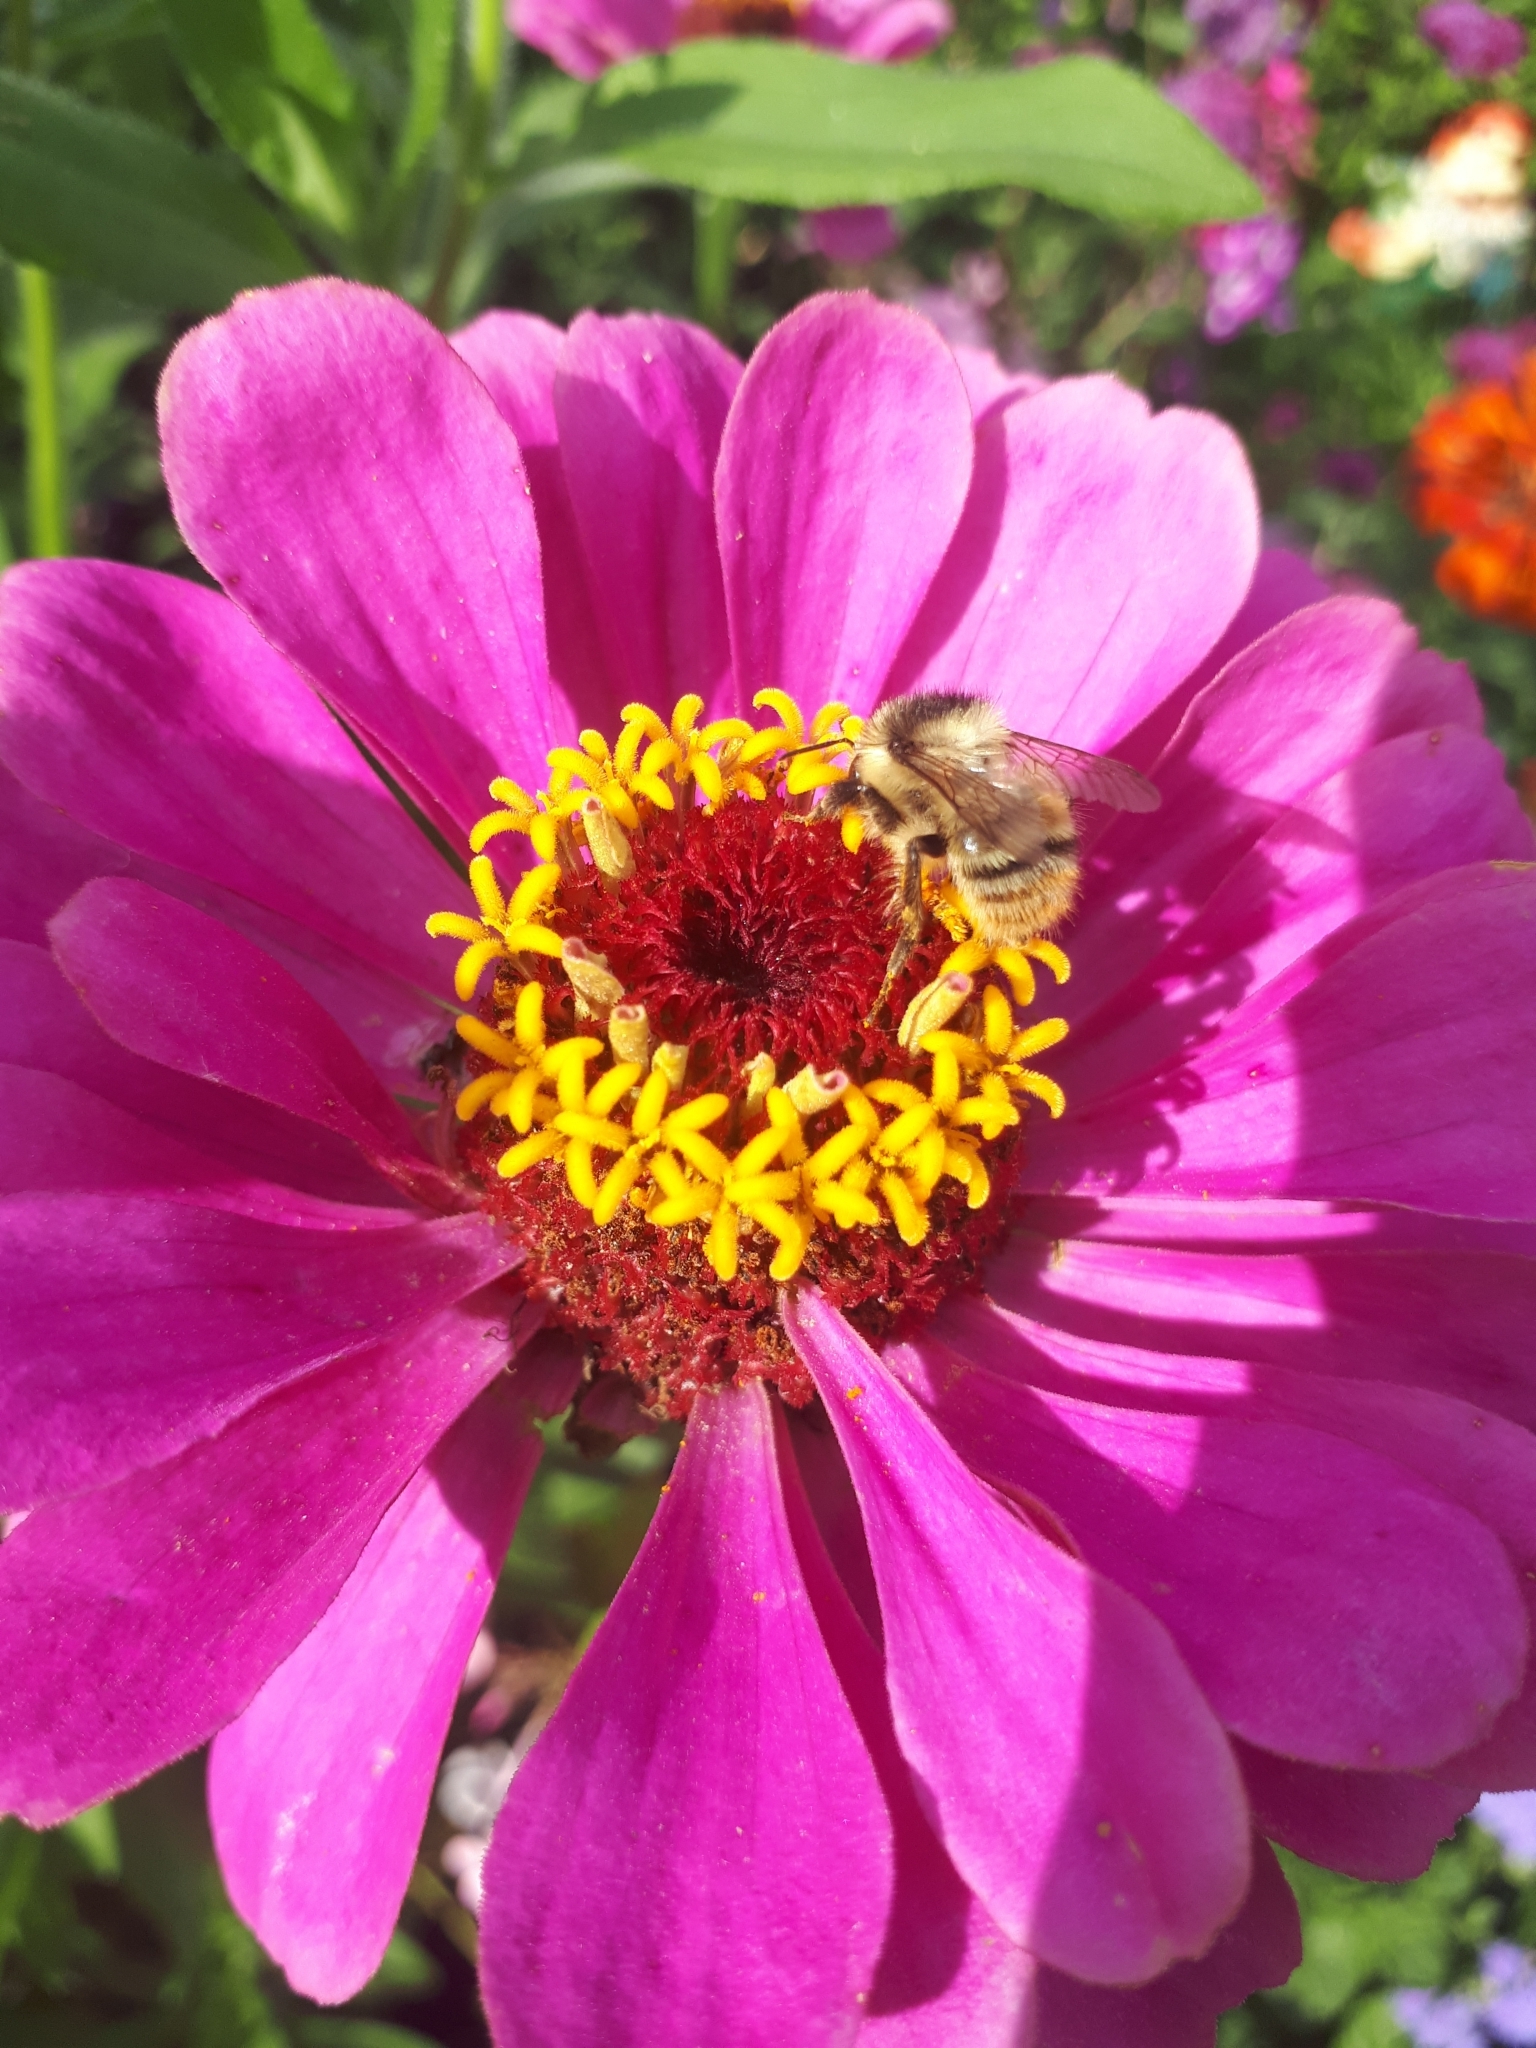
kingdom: Animalia
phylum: Arthropoda
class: Insecta
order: Hymenoptera
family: Apidae
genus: Bombus
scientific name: Bombus sylvarum
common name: Shrill carder bee
